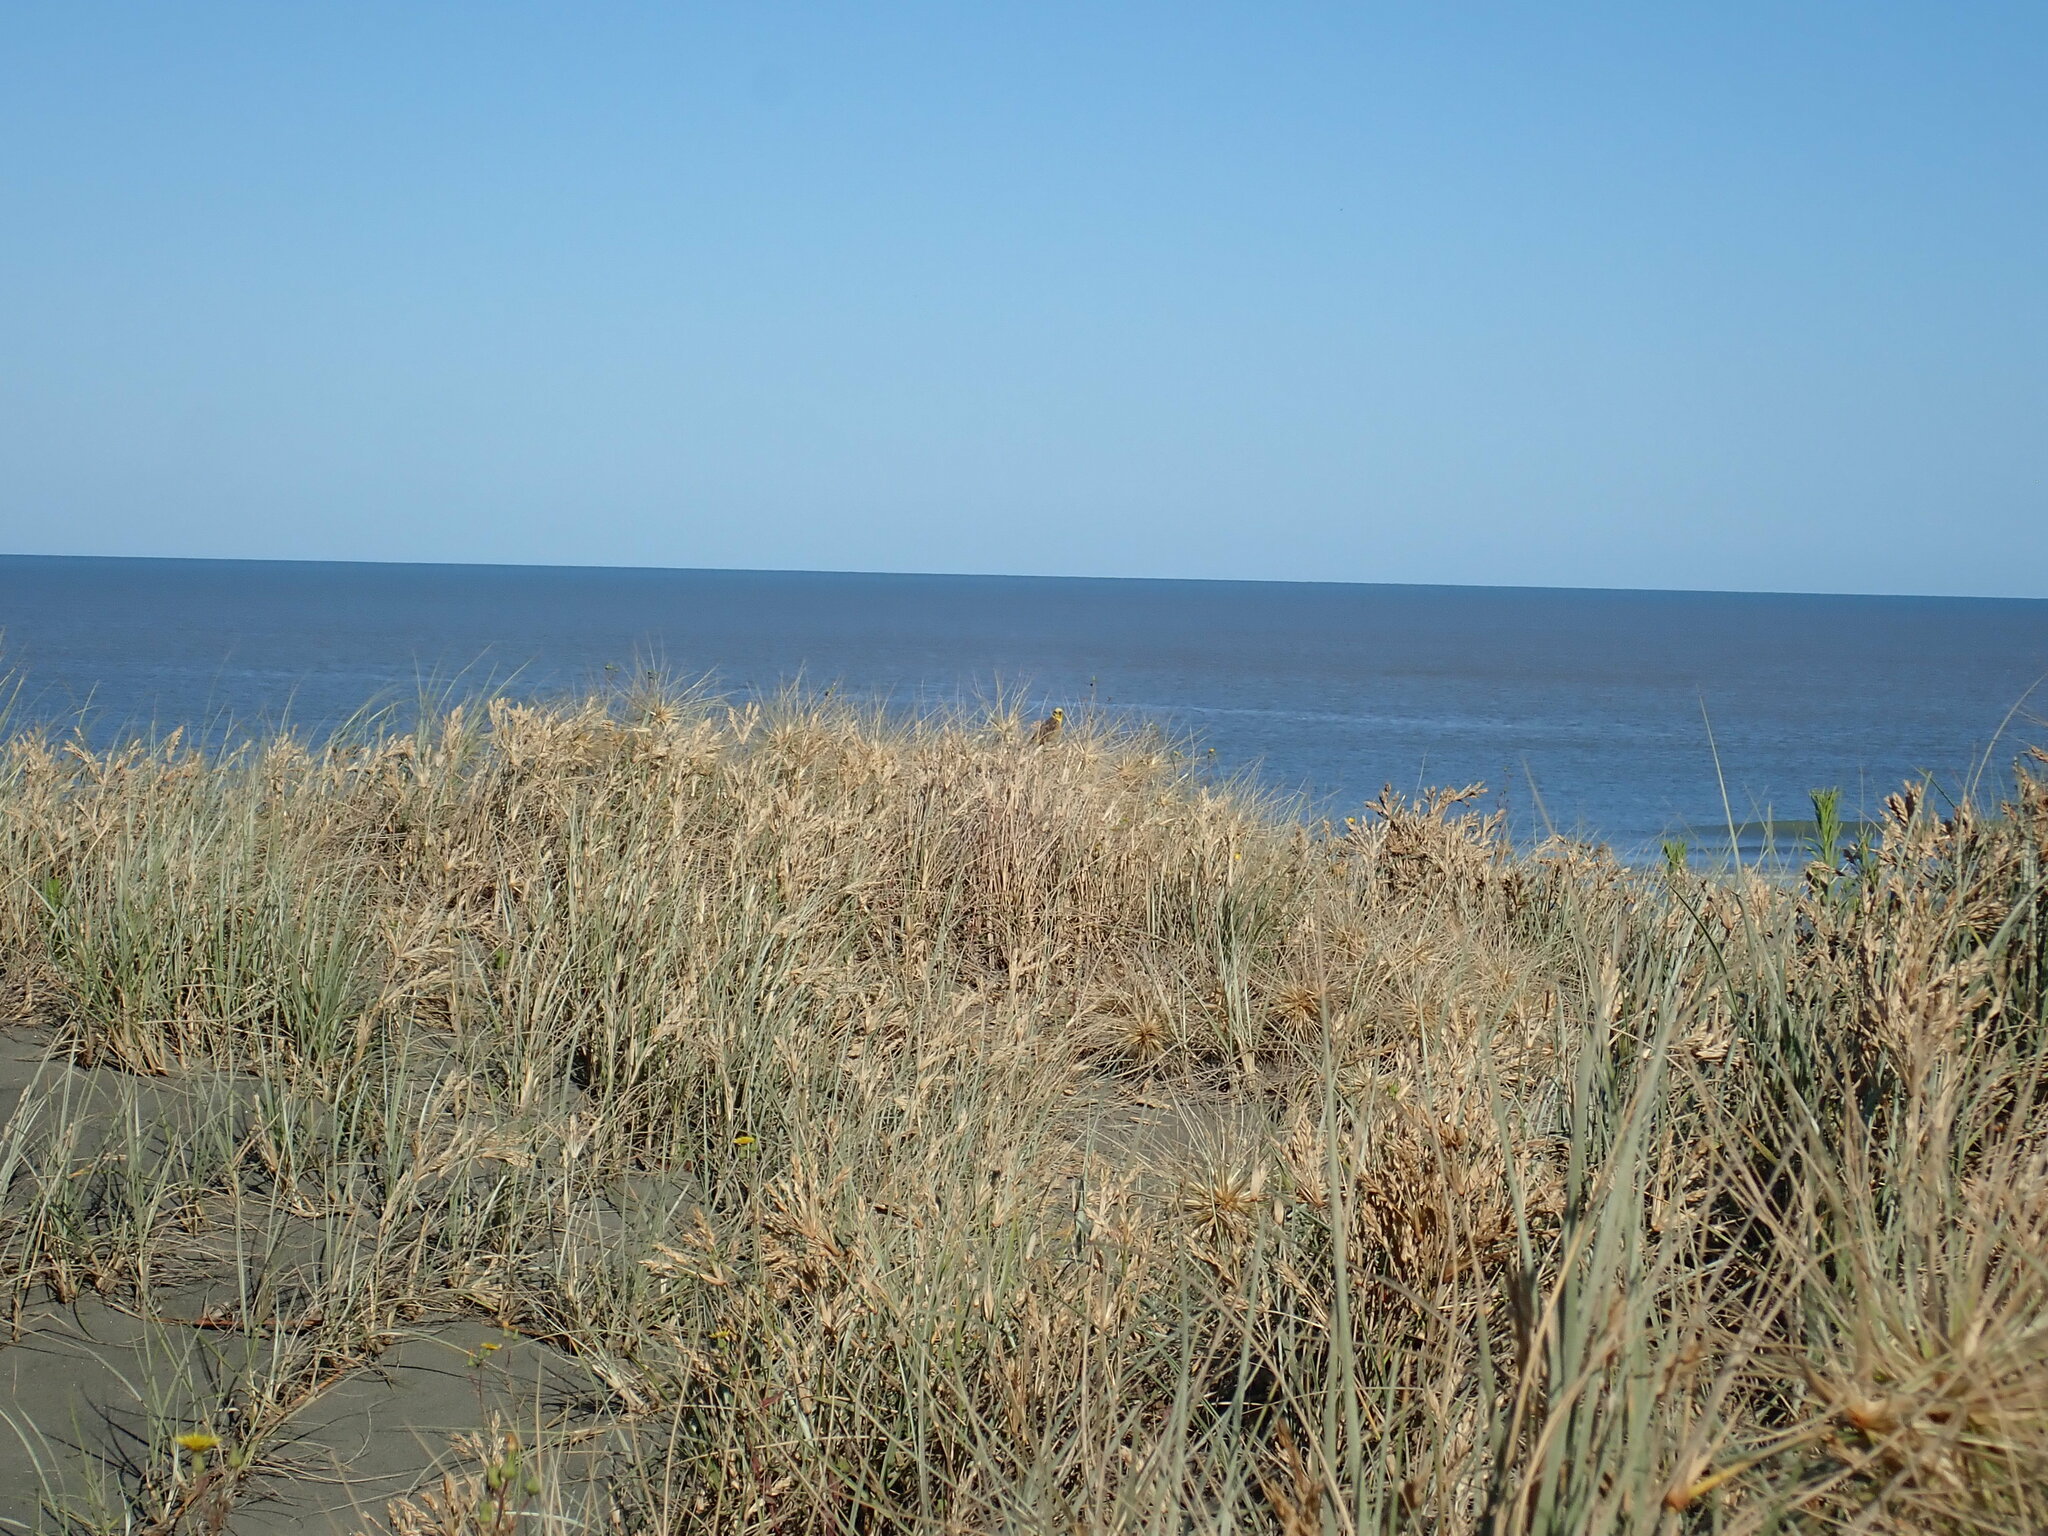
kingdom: Animalia
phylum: Chordata
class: Aves
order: Passeriformes
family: Emberizidae
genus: Emberiza
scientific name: Emberiza citrinella
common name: Yellowhammer
